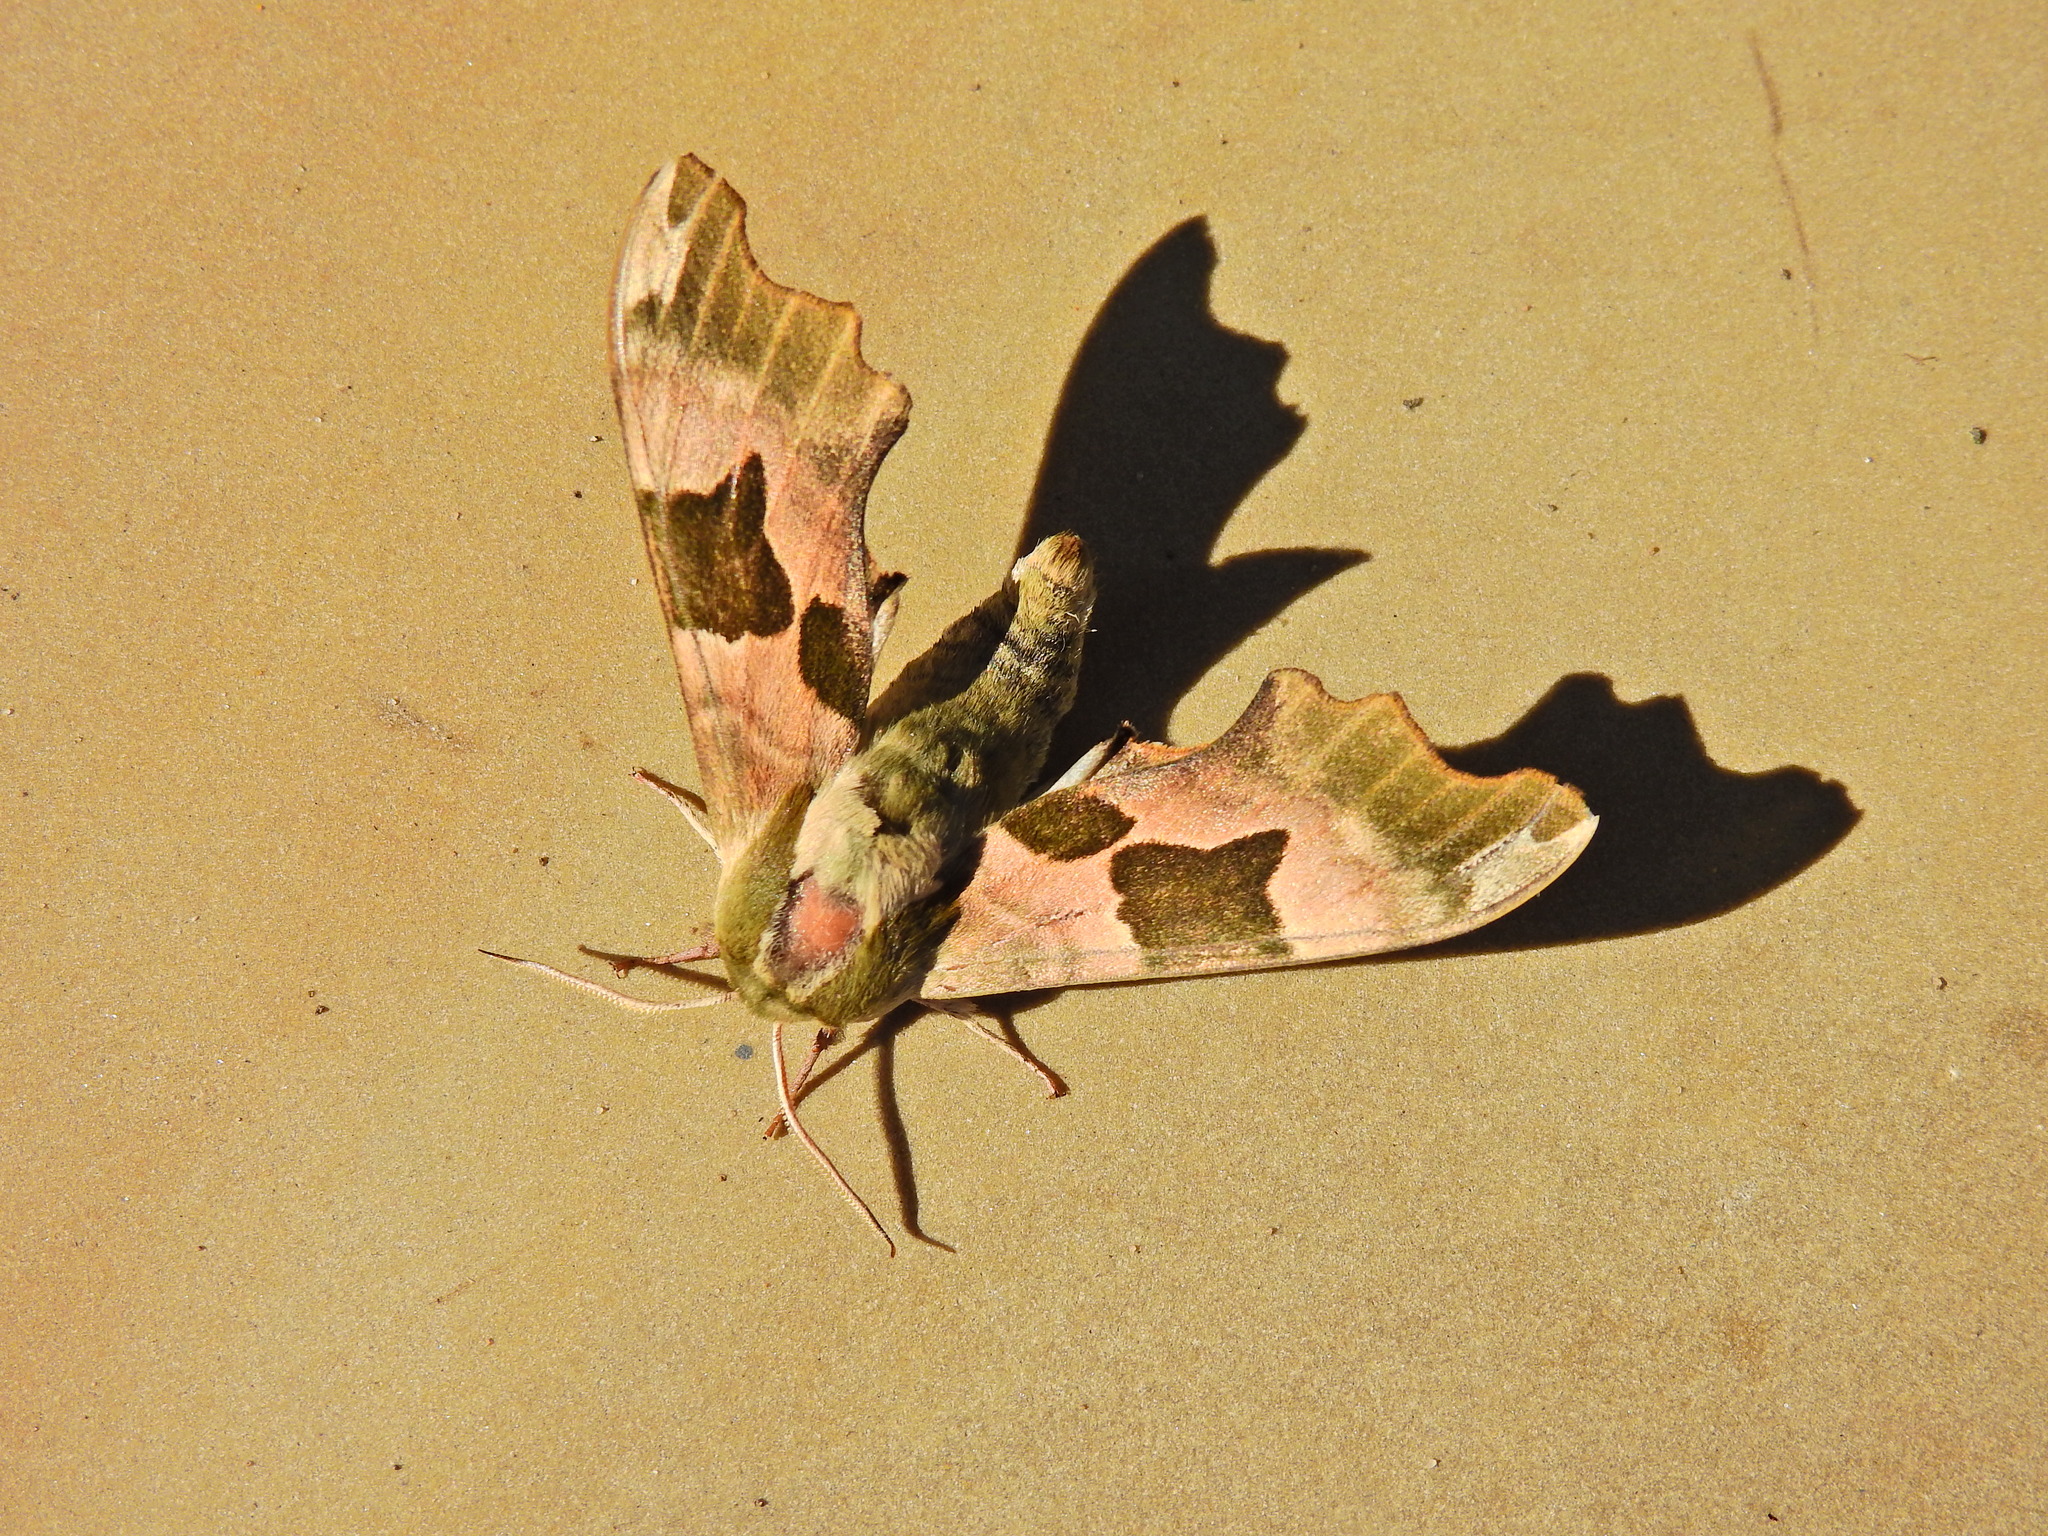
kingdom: Animalia
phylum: Arthropoda
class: Insecta
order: Lepidoptera
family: Sphingidae
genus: Mimas
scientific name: Mimas tiliae
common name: Lime hawk-moth
